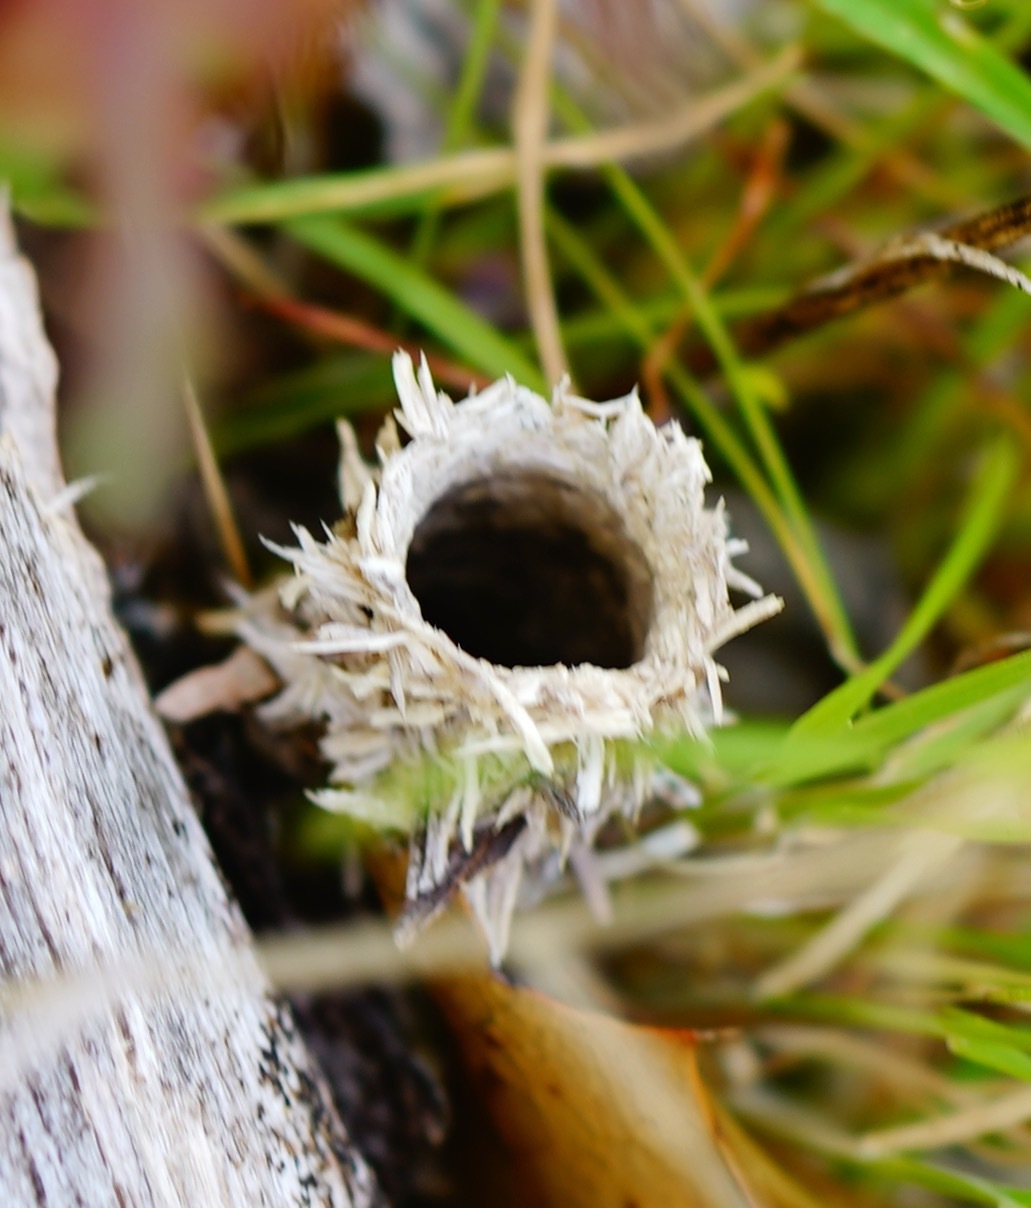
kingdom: Animalia
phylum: Arthropoda
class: Arachnida
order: Araneae
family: Antrodiaetidae
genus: Atypoides
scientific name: Atypoides riversi
